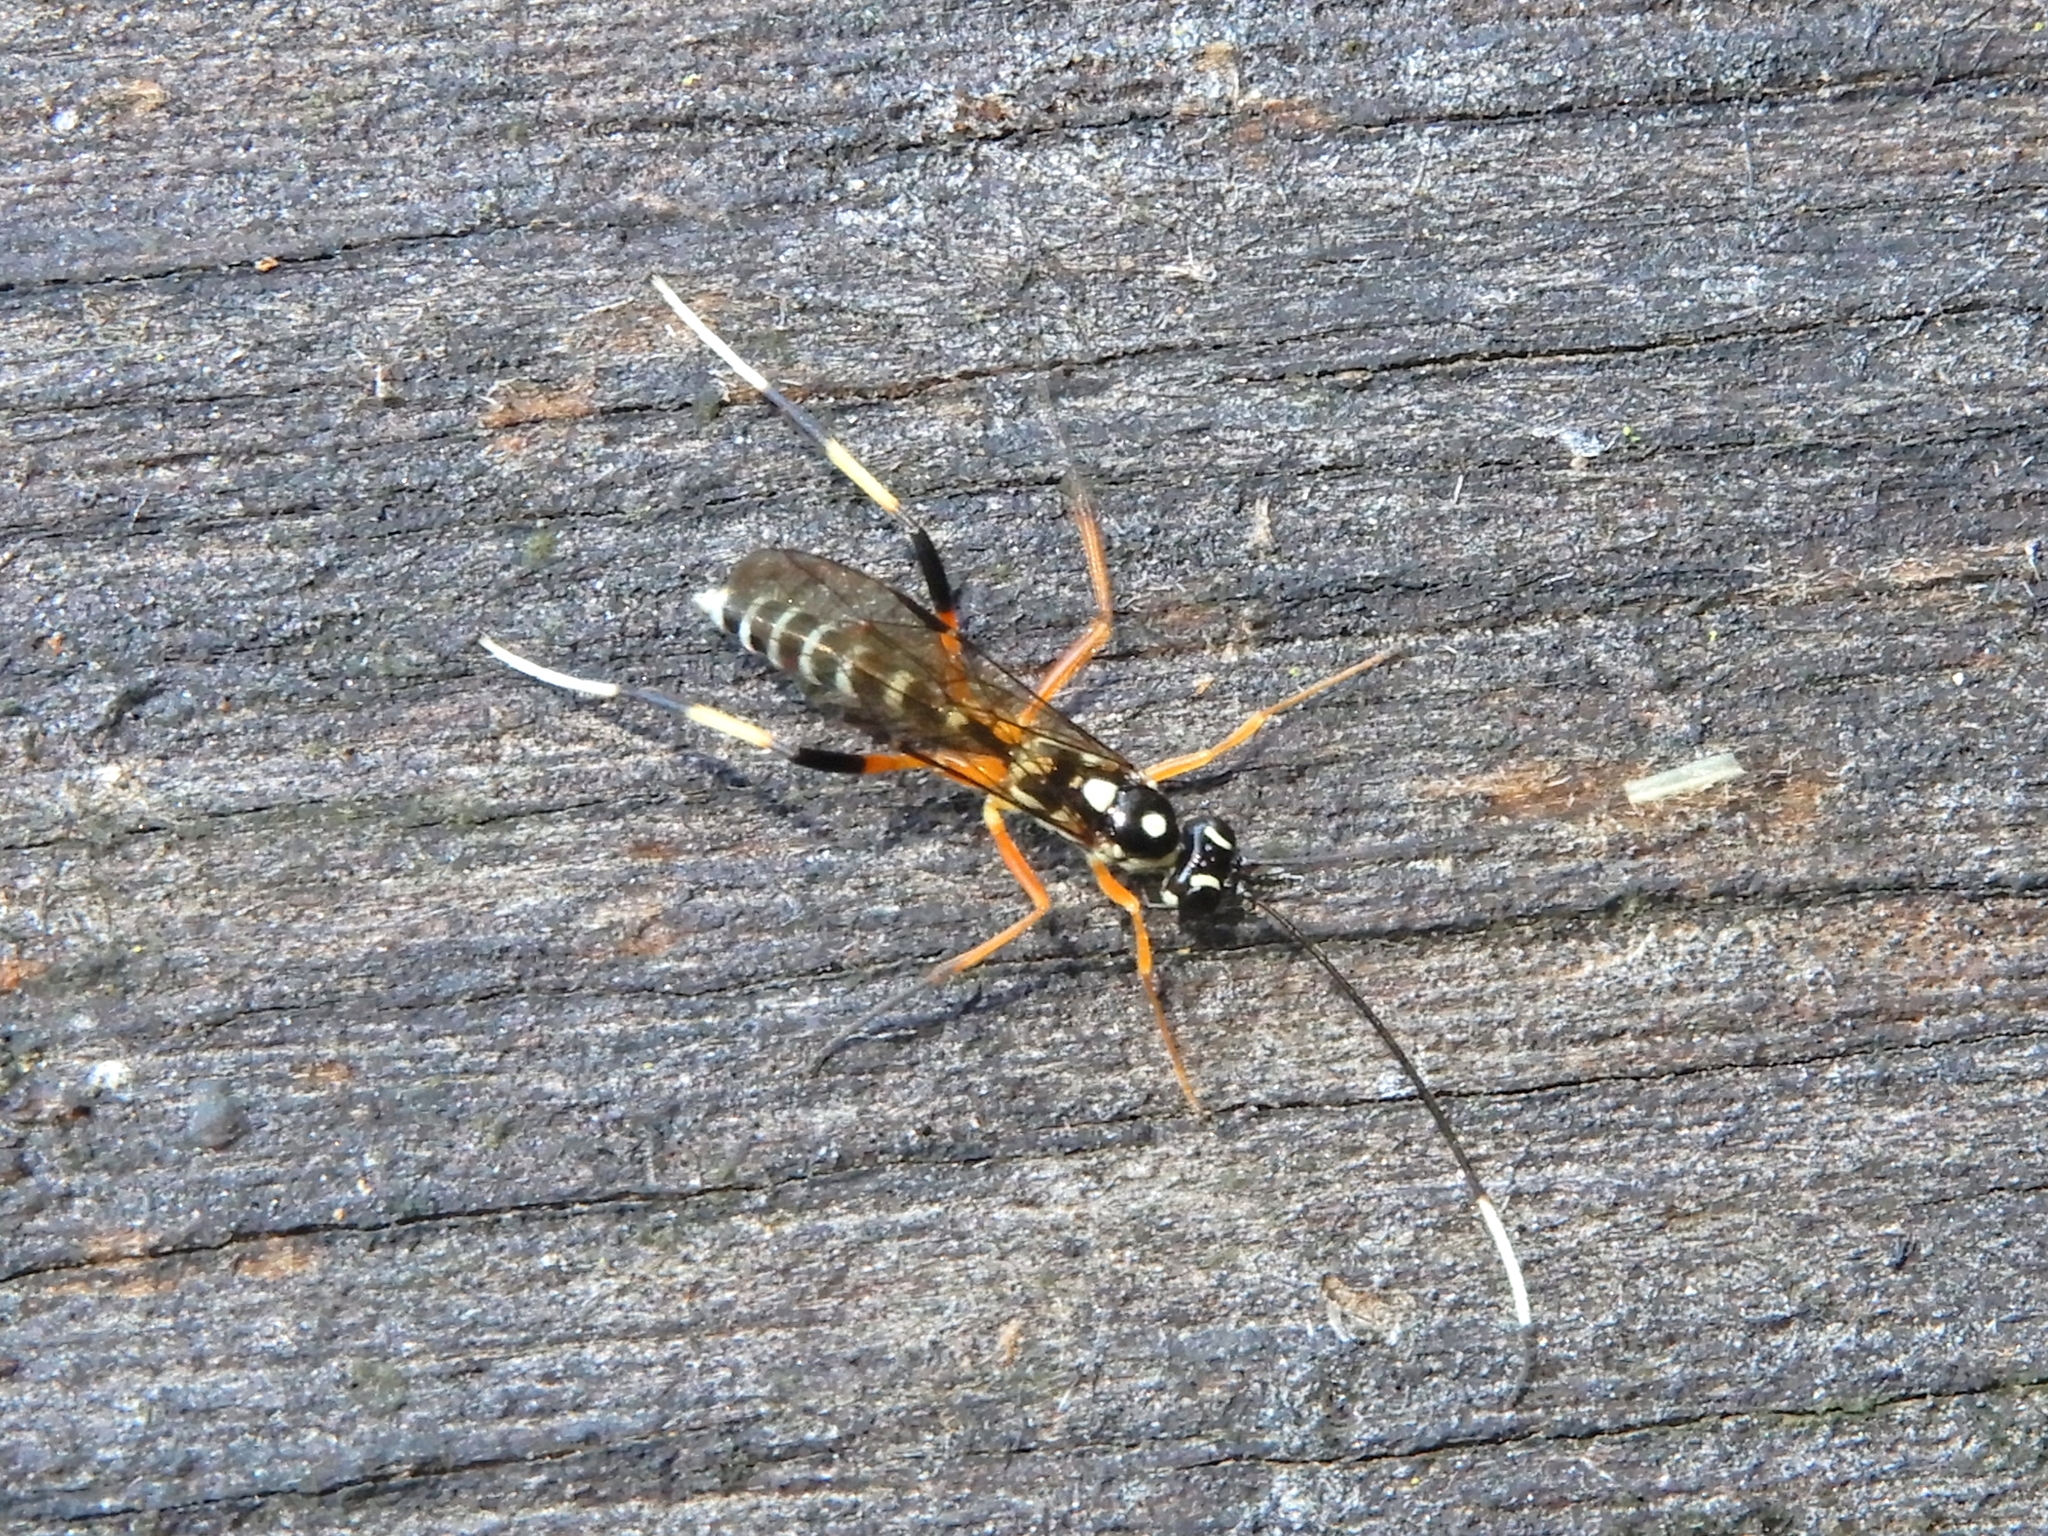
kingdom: Animalia
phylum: Arthropoda
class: Insecta
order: Hymenoptera
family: Ichneumonidae
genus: Xanthocryptus
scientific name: Xanthocryptus novozealandicus
